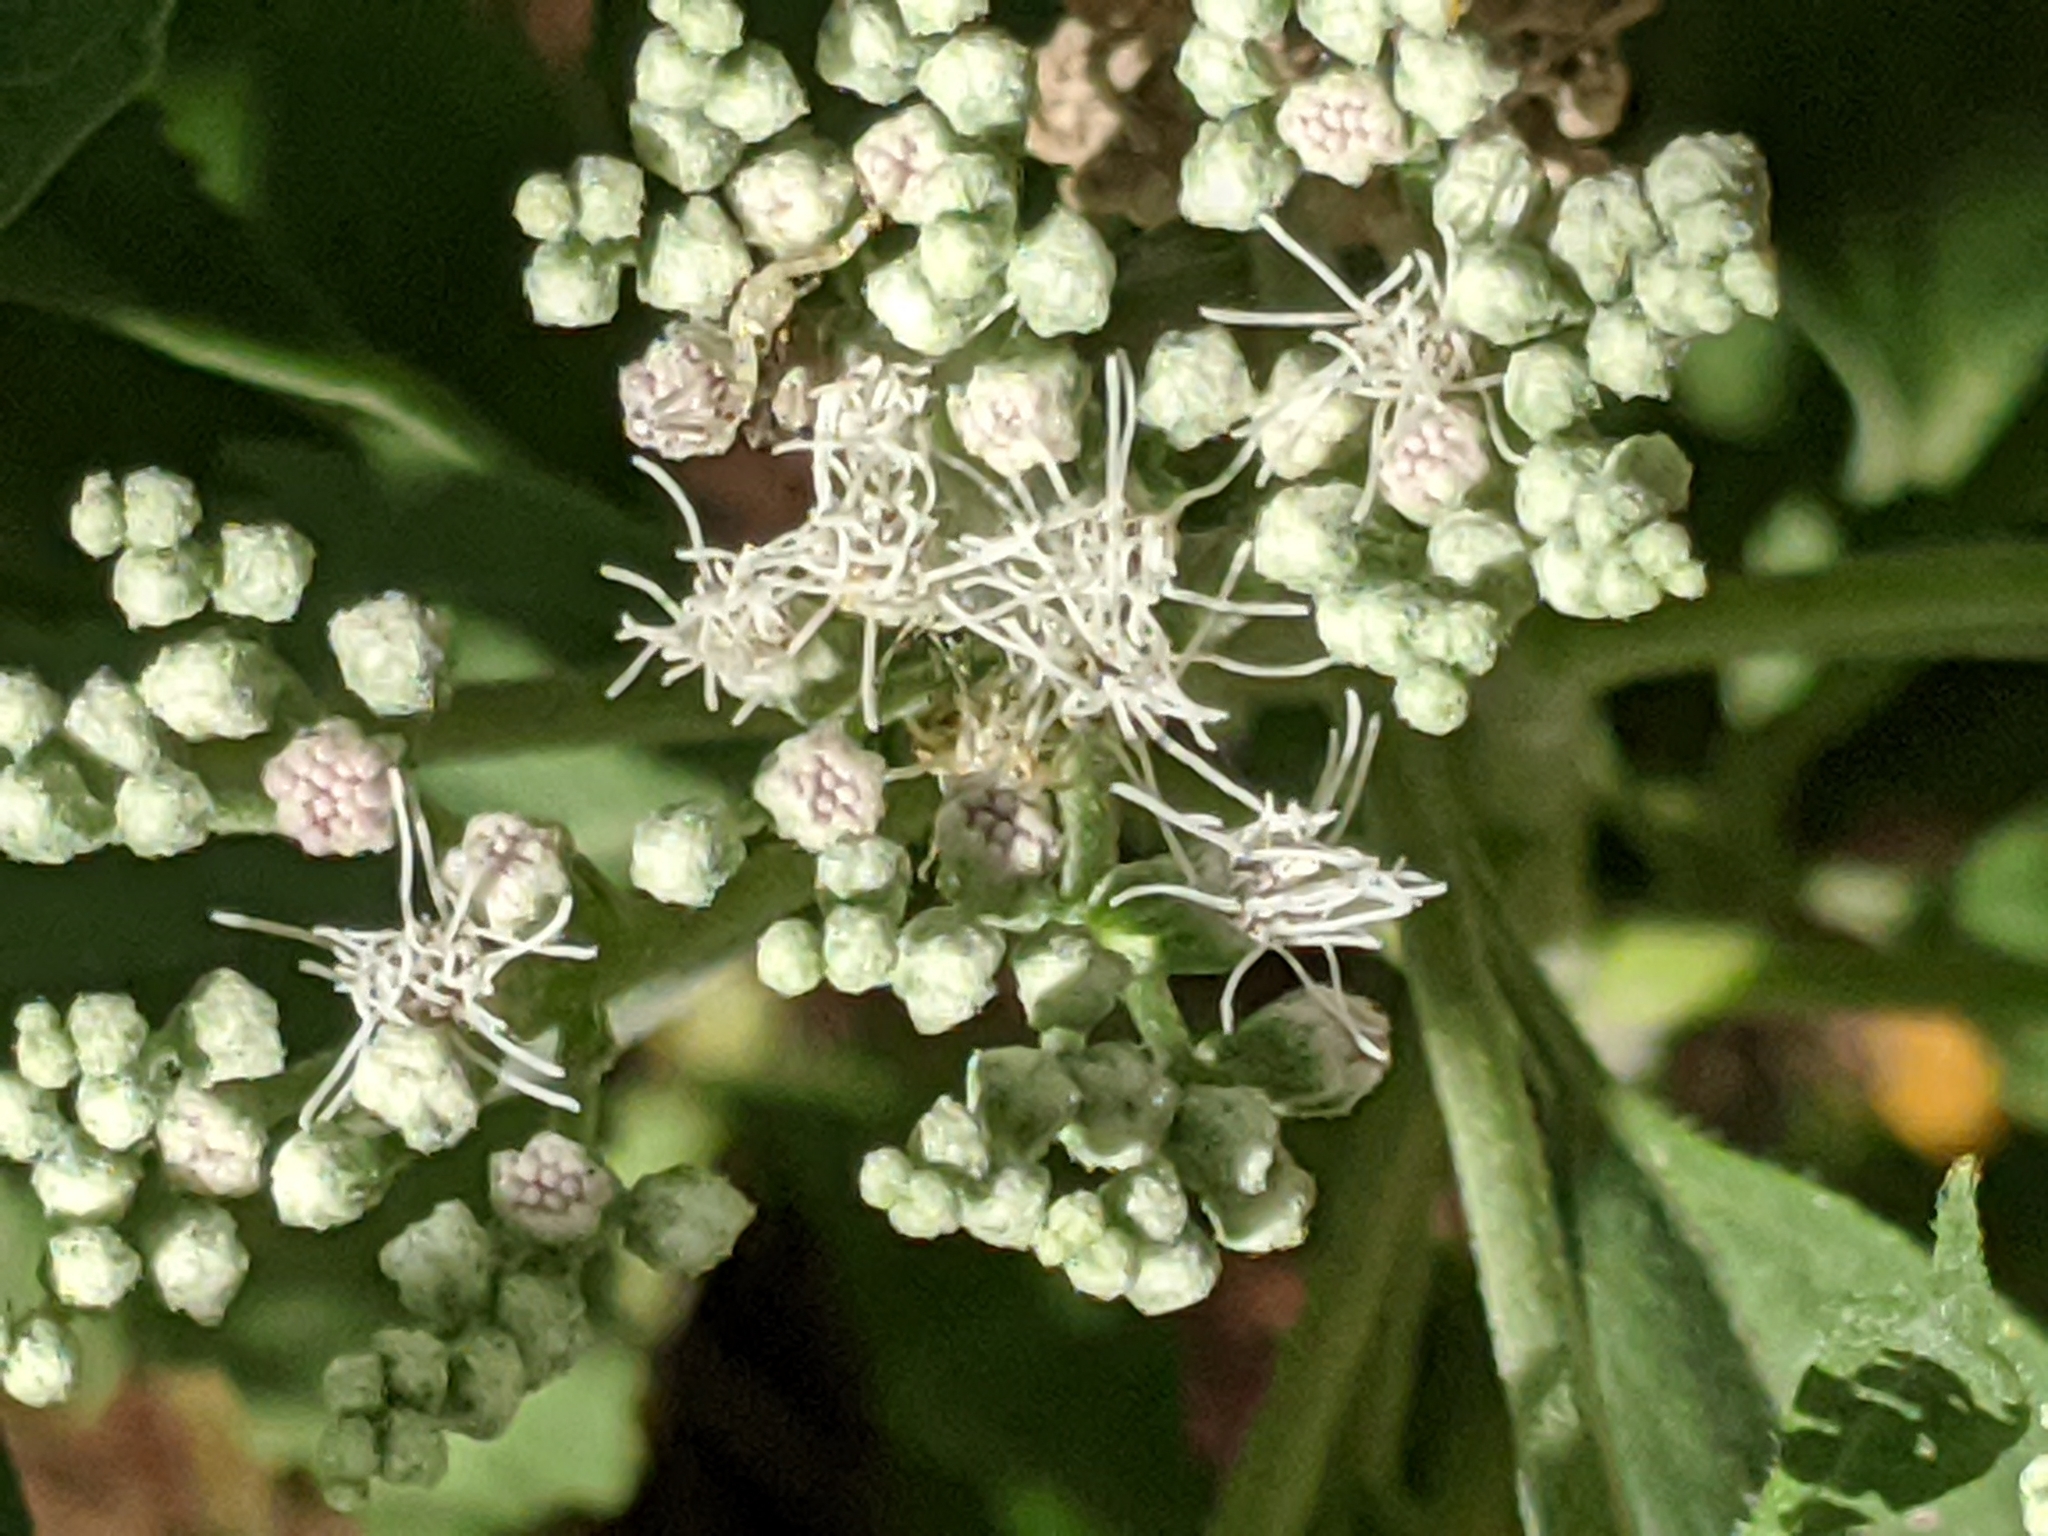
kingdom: Plantae
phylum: Tracheophyta
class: Magnoliopsida
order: Asterales
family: Asteraceae
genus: Eupatorium
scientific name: Eupatorium serotinum
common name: Late boneset
